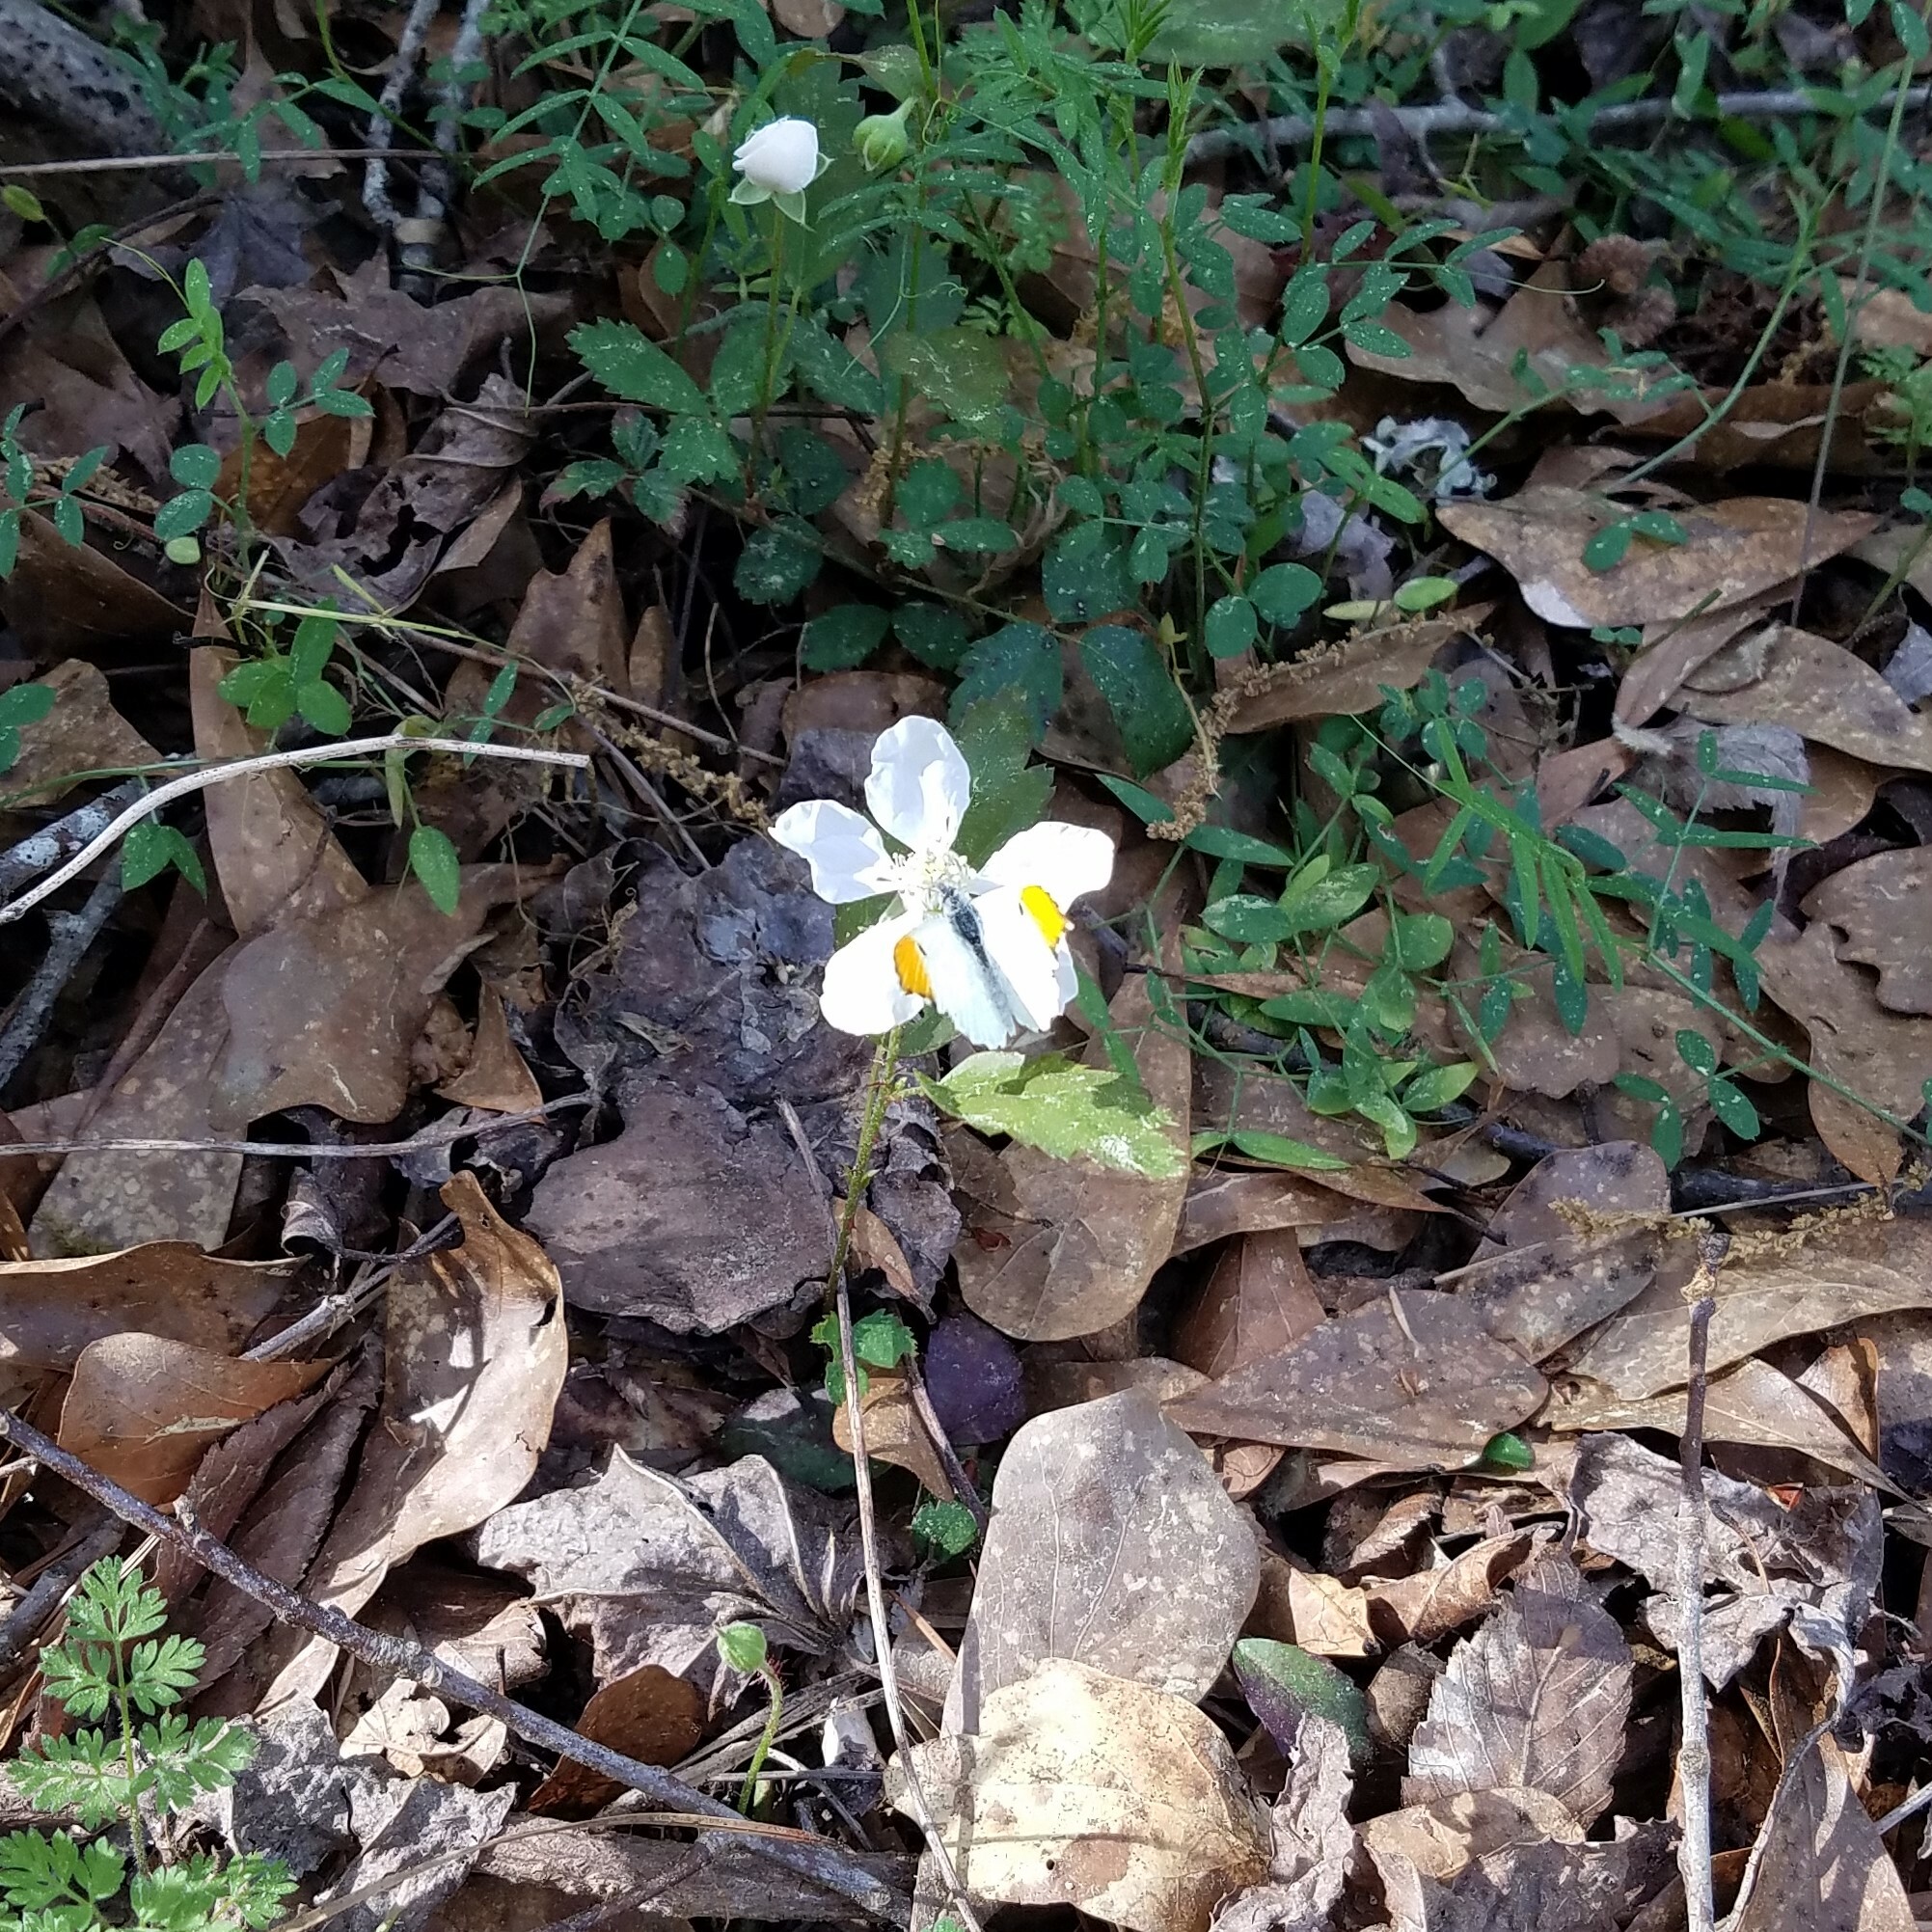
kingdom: Animalia
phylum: Arthropoda
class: Insecta
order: Lepidoptera
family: Pieridae
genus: Anthocharis
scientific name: Anthocharis midea
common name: Falcate orangetip
